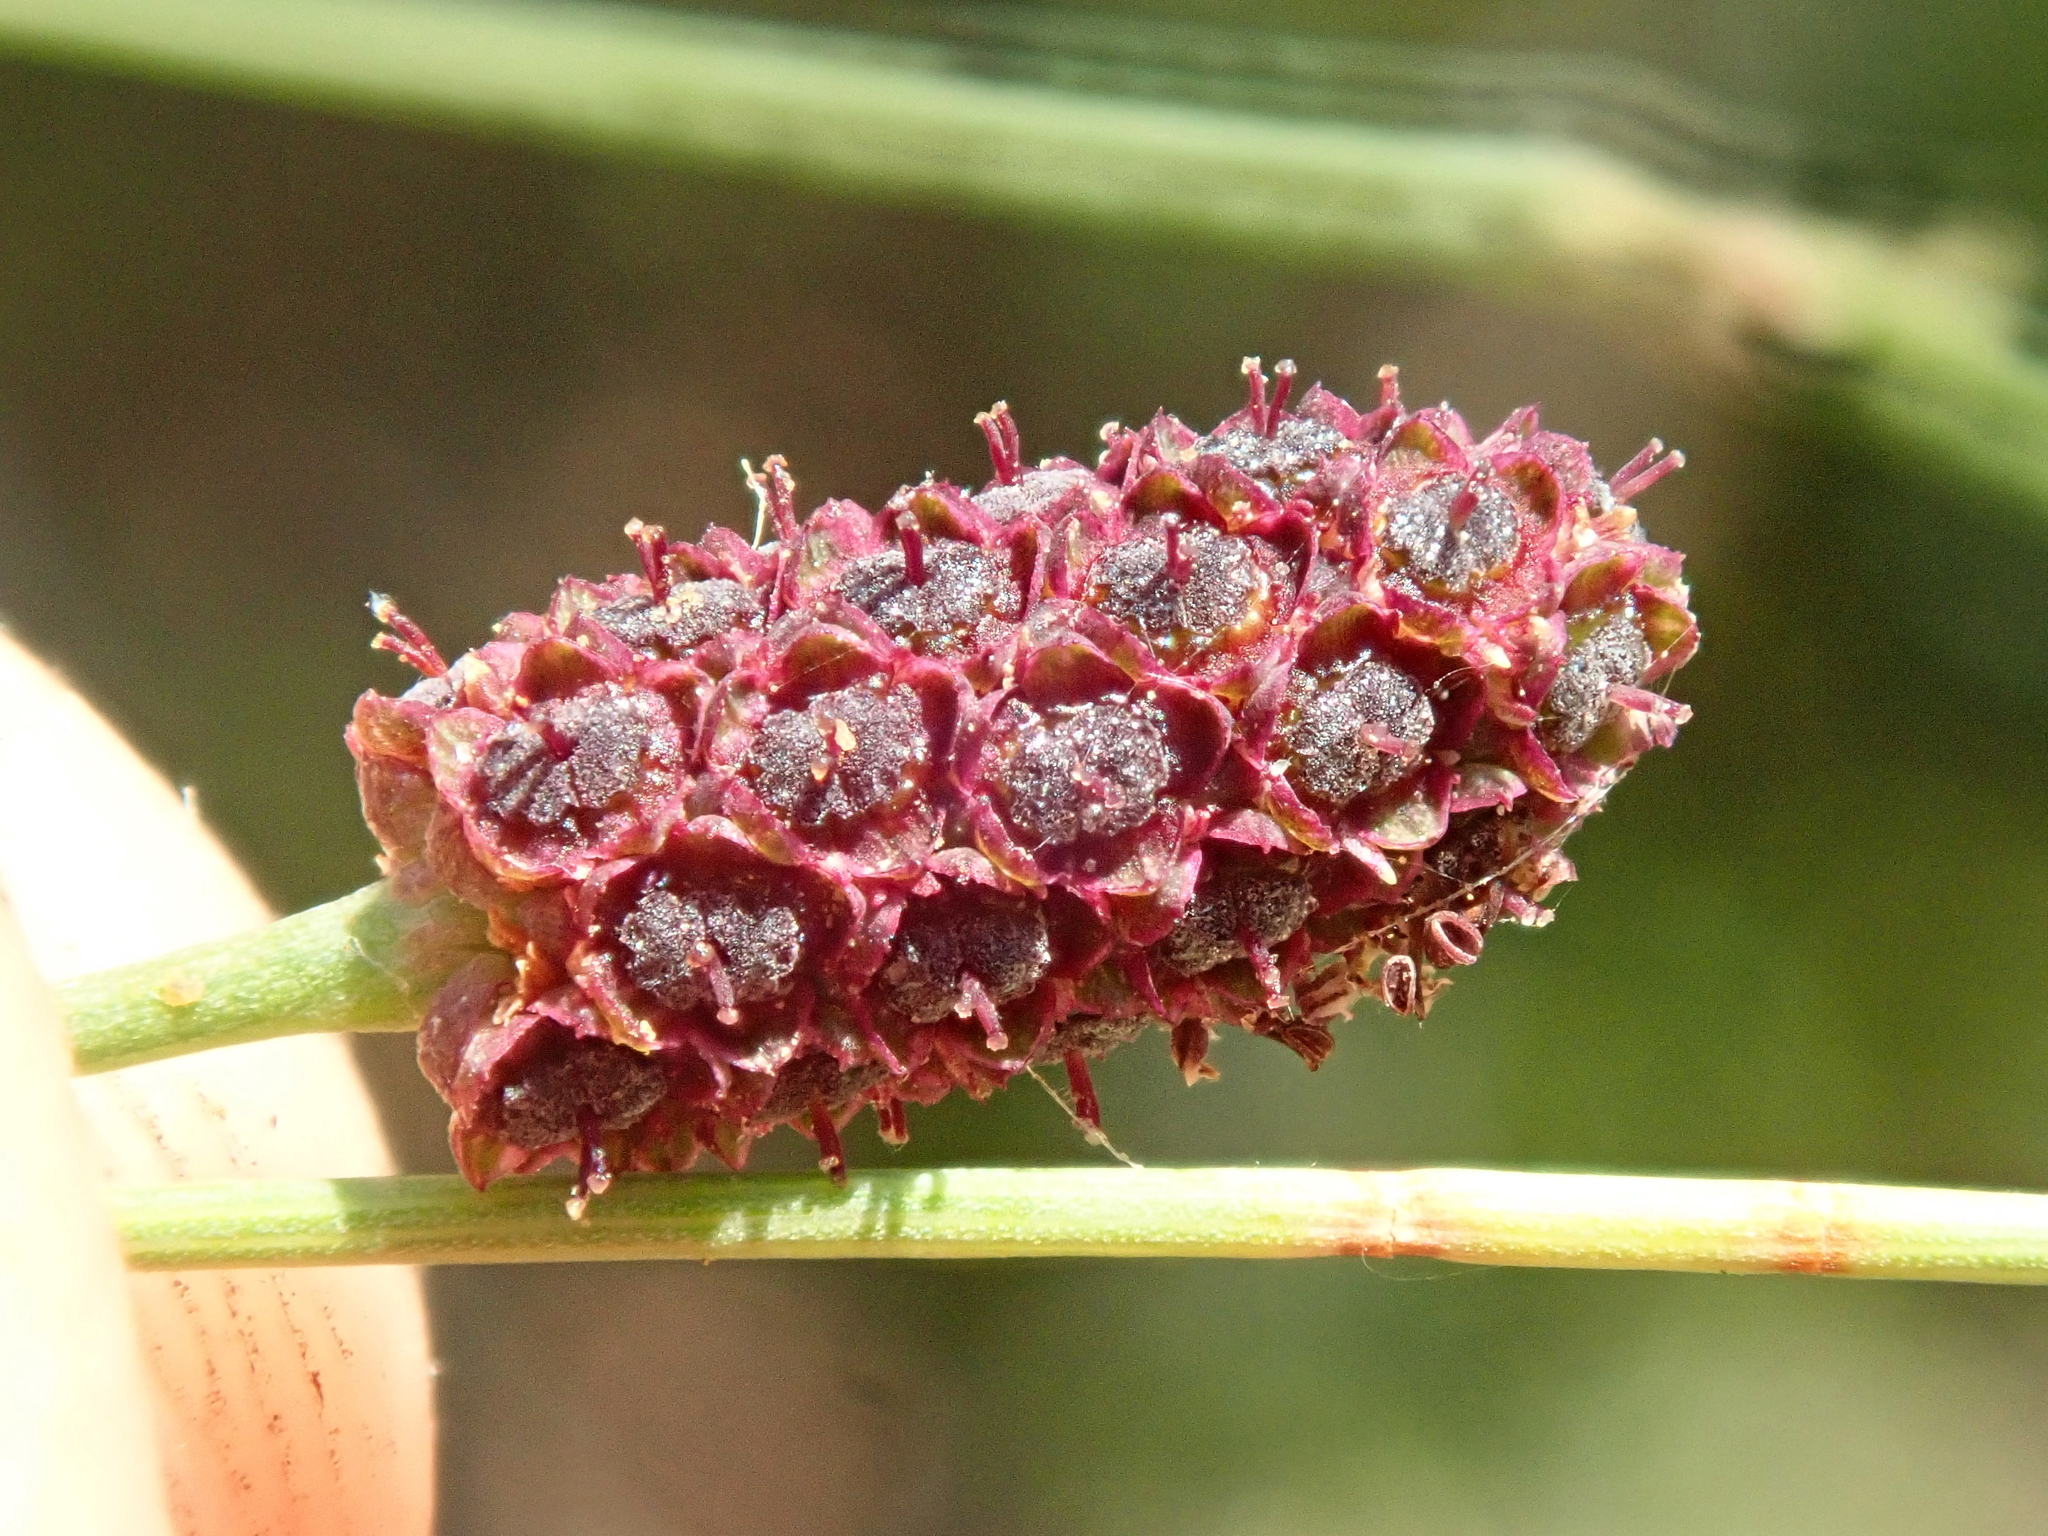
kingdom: Plantae
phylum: Tracheophyta
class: Magnoliopsida
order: Apiales
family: Apiaceae
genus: Eryngium
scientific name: Eryngium ebracteatum
